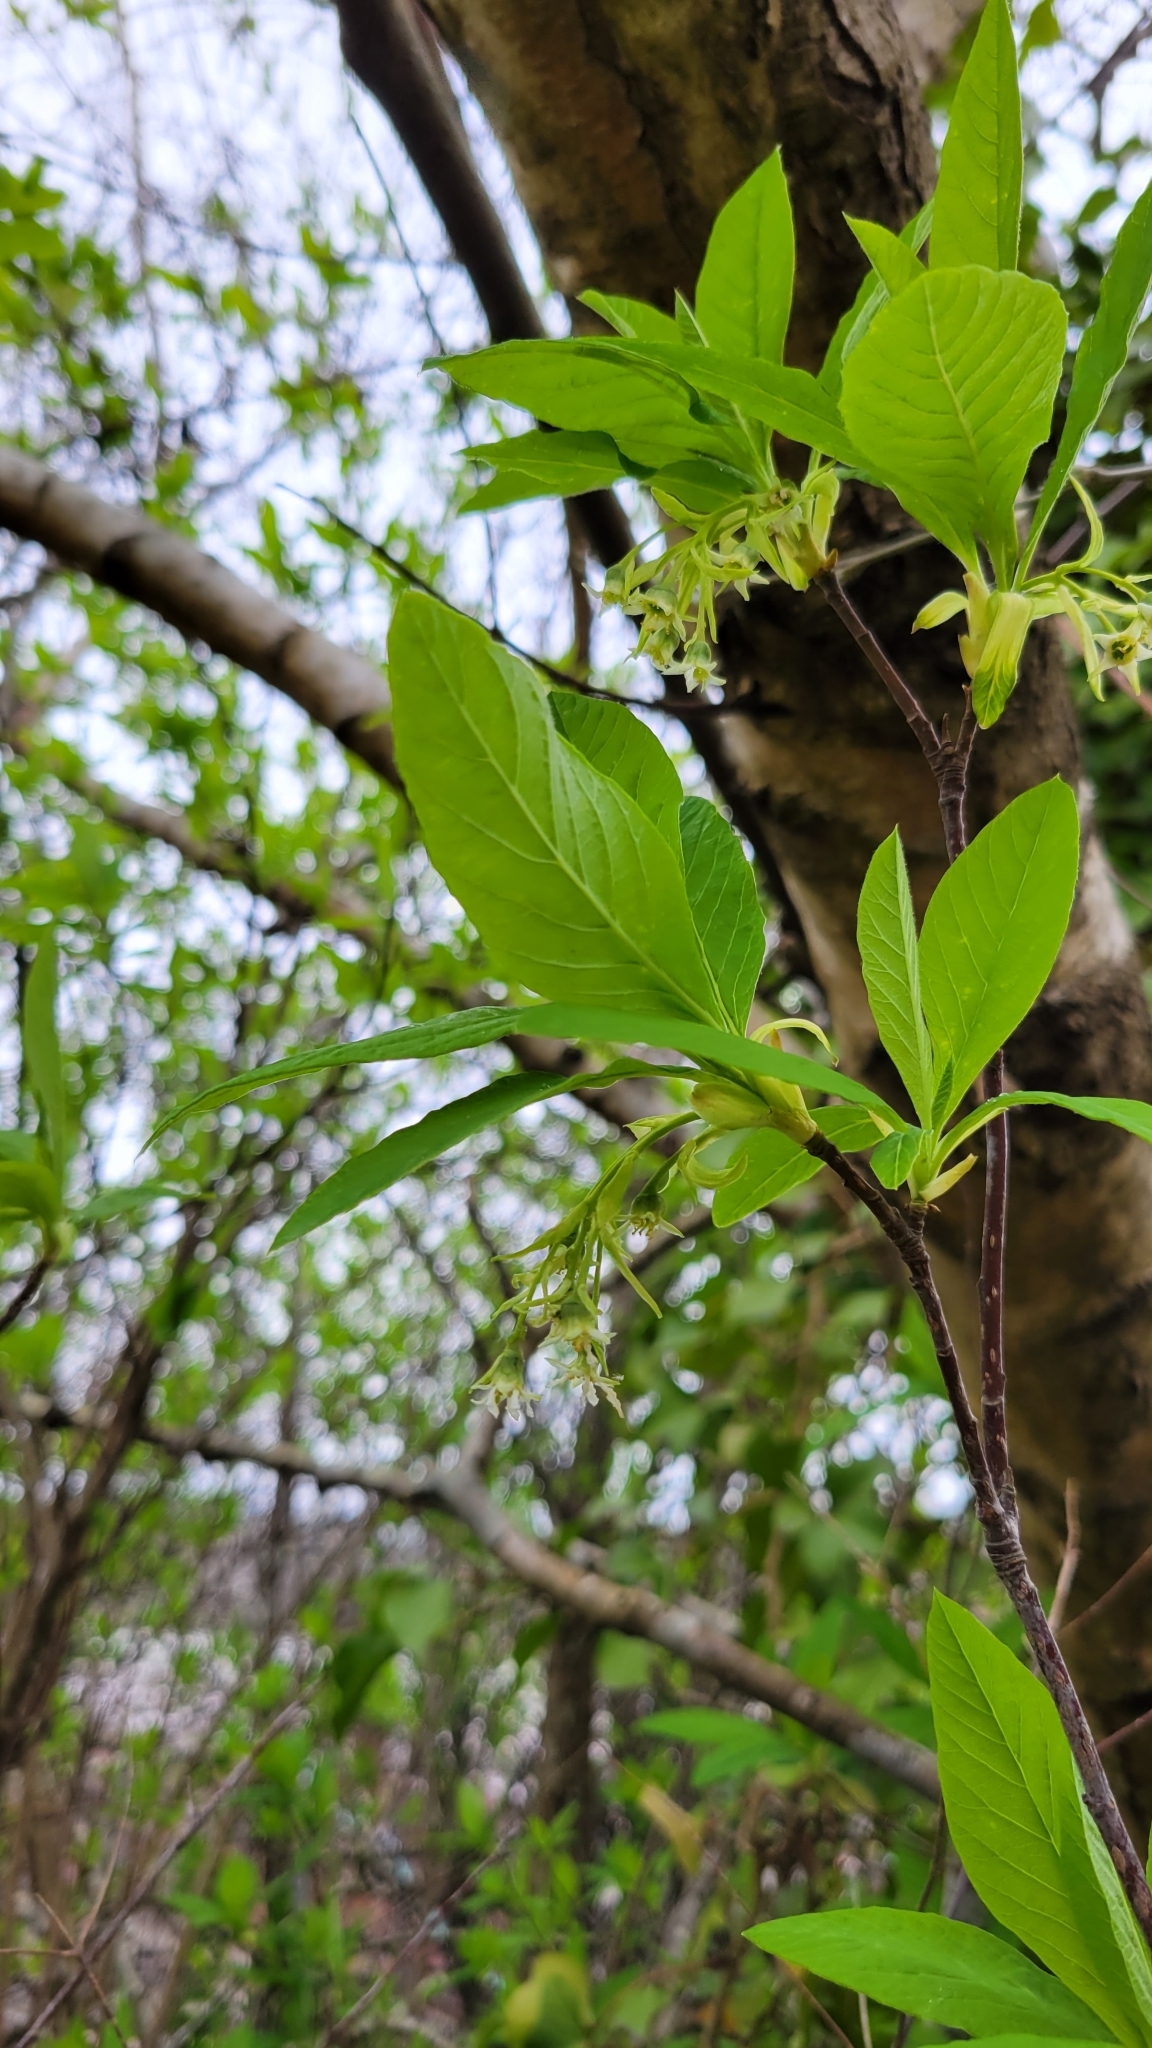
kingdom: Plantae
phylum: Tracheophyta
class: Magnoliopsida
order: Rosales
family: Rosaceae
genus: Oemleria
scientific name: Oemleria cerasiformis
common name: Osoberry
